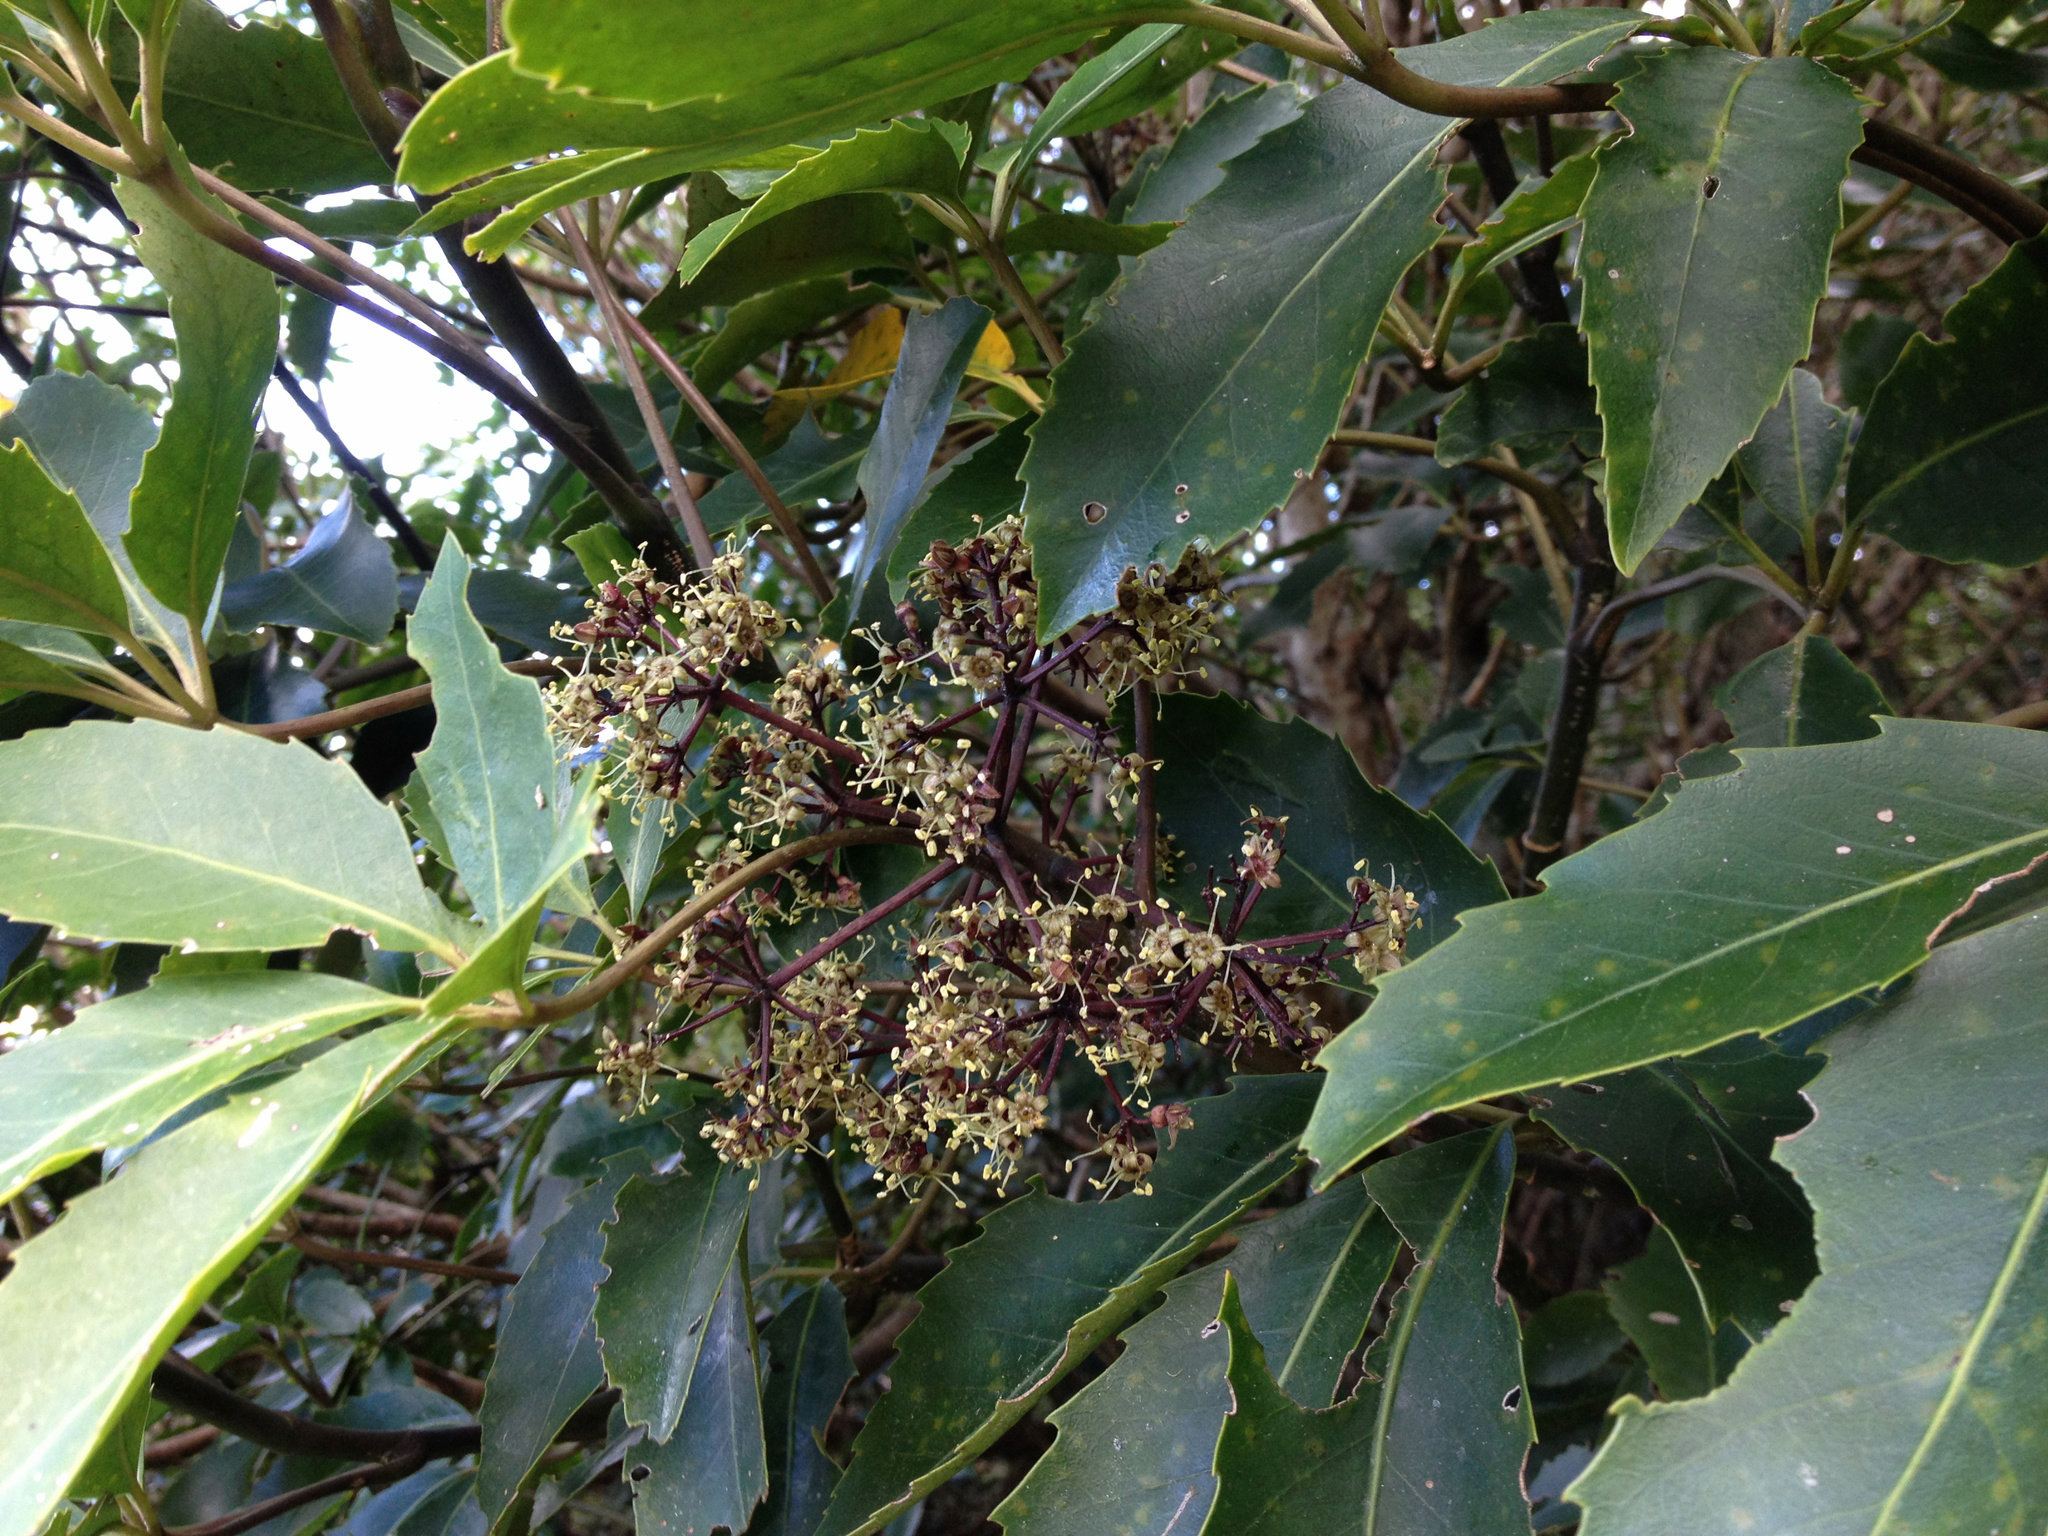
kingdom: Plantae
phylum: Tracheophyta
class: Magnoliopsida
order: Apiales
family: Araliaceae
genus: Neopanax
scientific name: Neopanax arboreus
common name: Five-fingers
